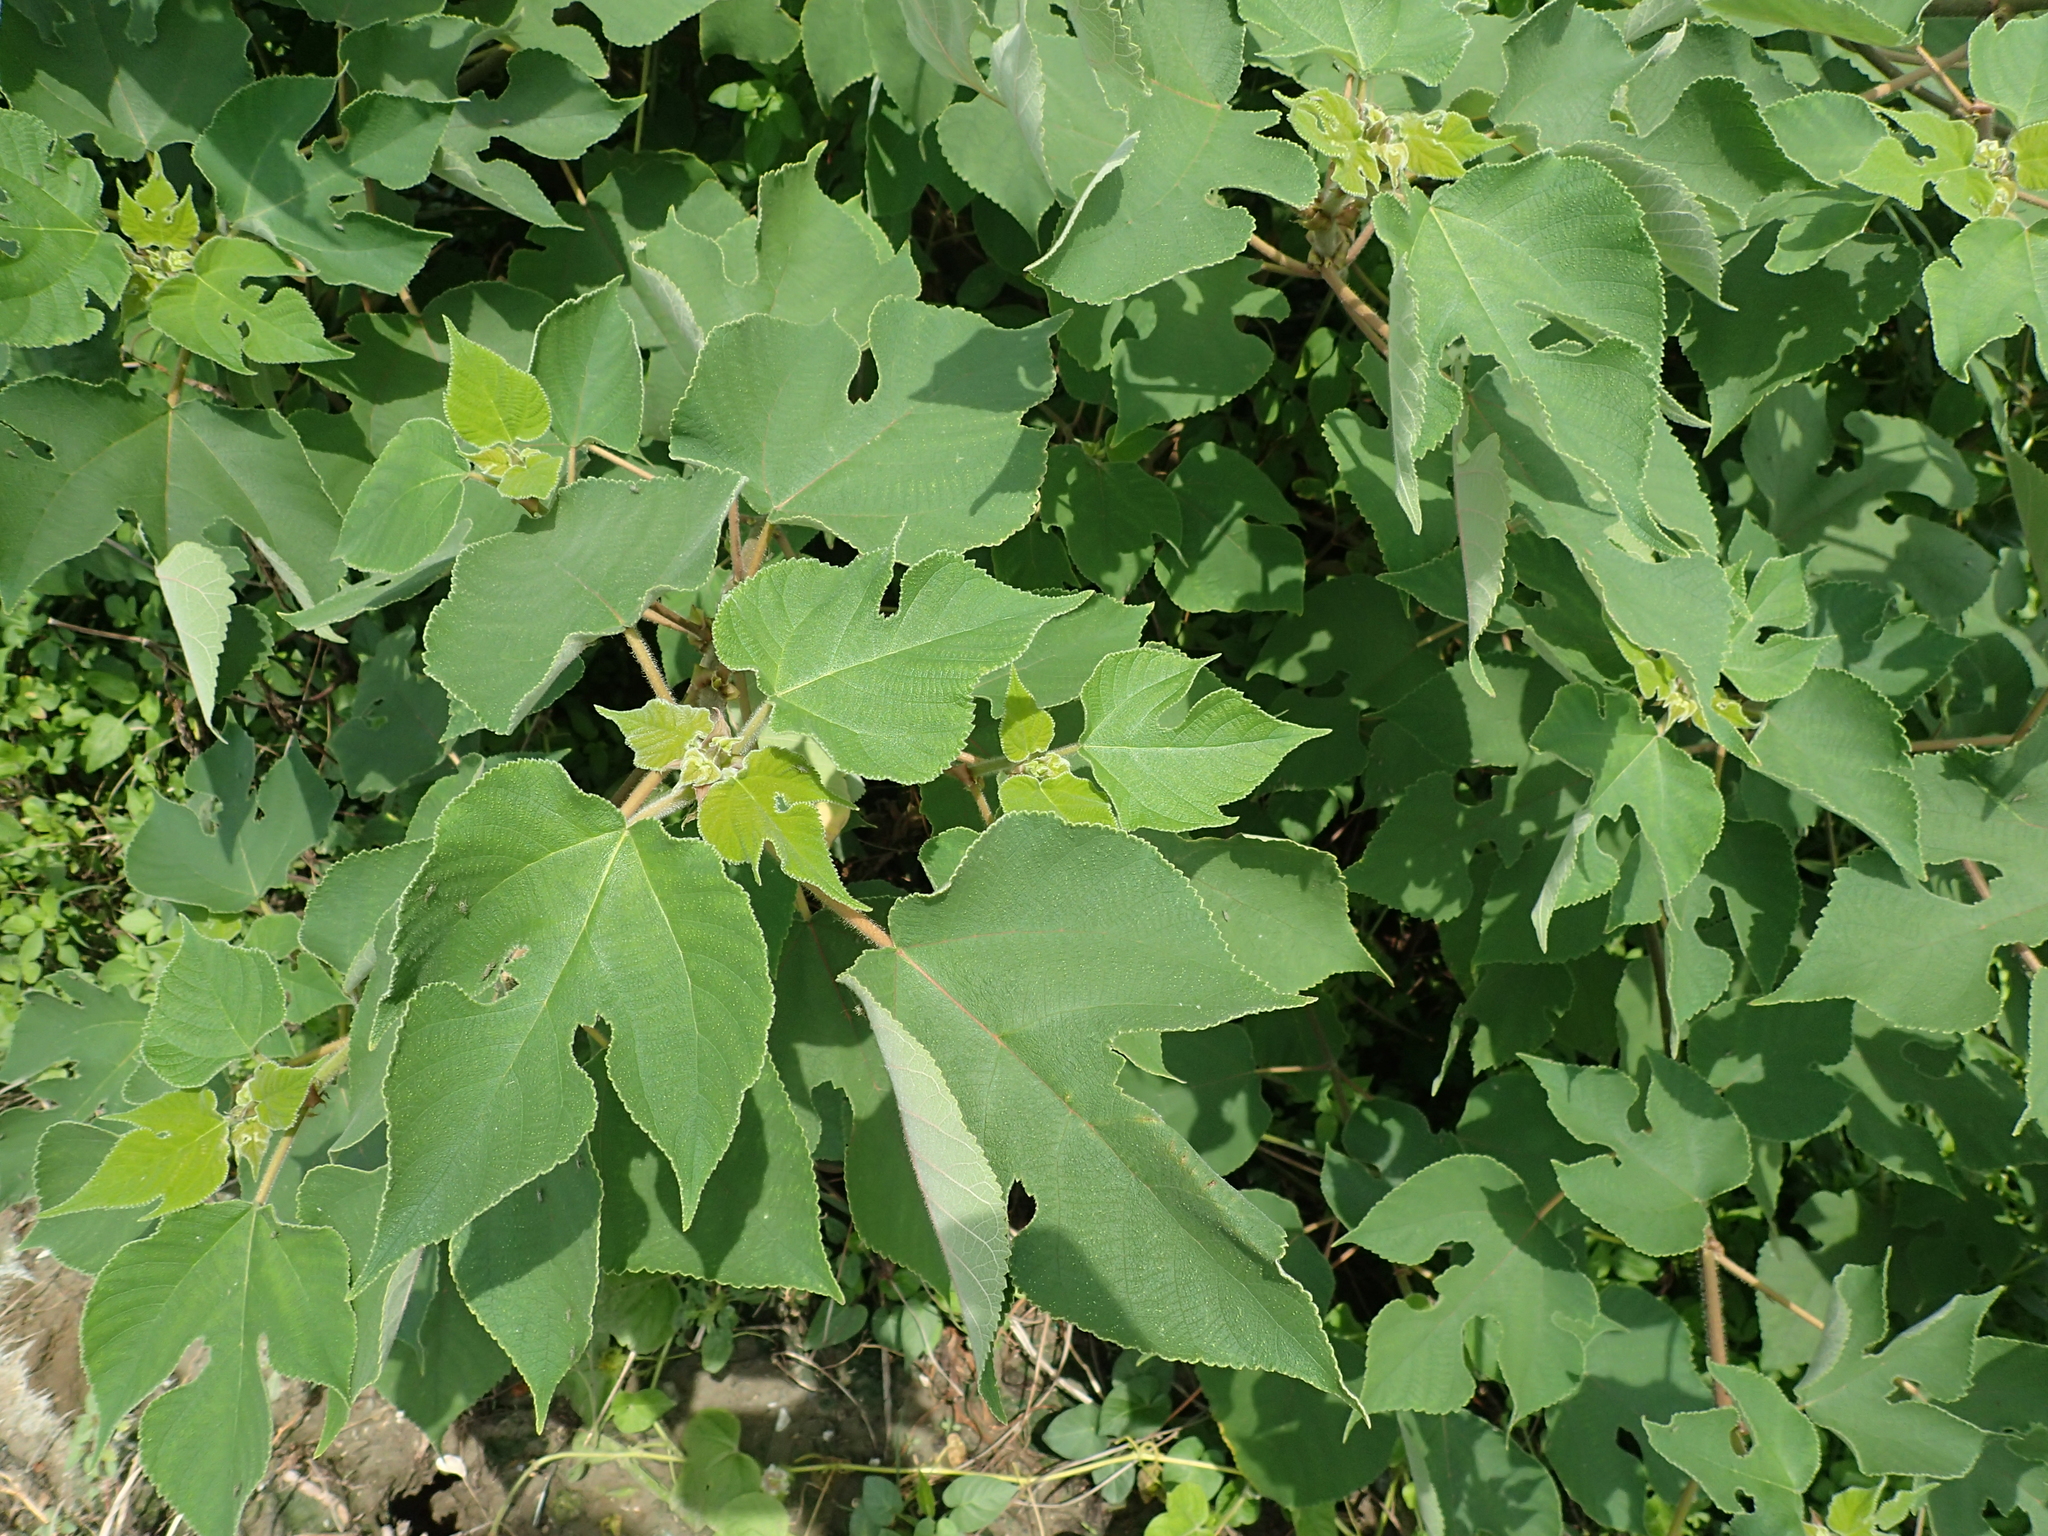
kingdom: Plantae
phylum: Tracheophyta
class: Magnoliopsida
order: Rosales
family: Moraceae
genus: Broussonetia
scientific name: Broussonetia papyrifera
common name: Paper mulberry
